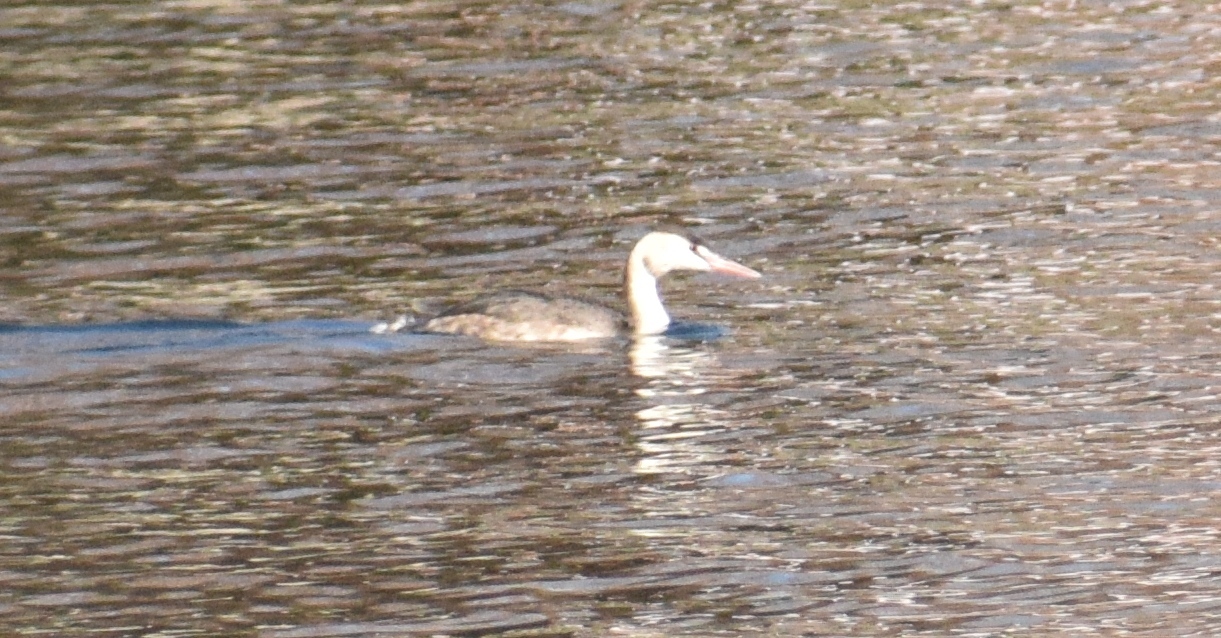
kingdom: Animalia
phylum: Chordata
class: Aves
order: Podicipediformes
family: Podicipedidae
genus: Podiceps
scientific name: Podiceps cristatus
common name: Great crested grebe
